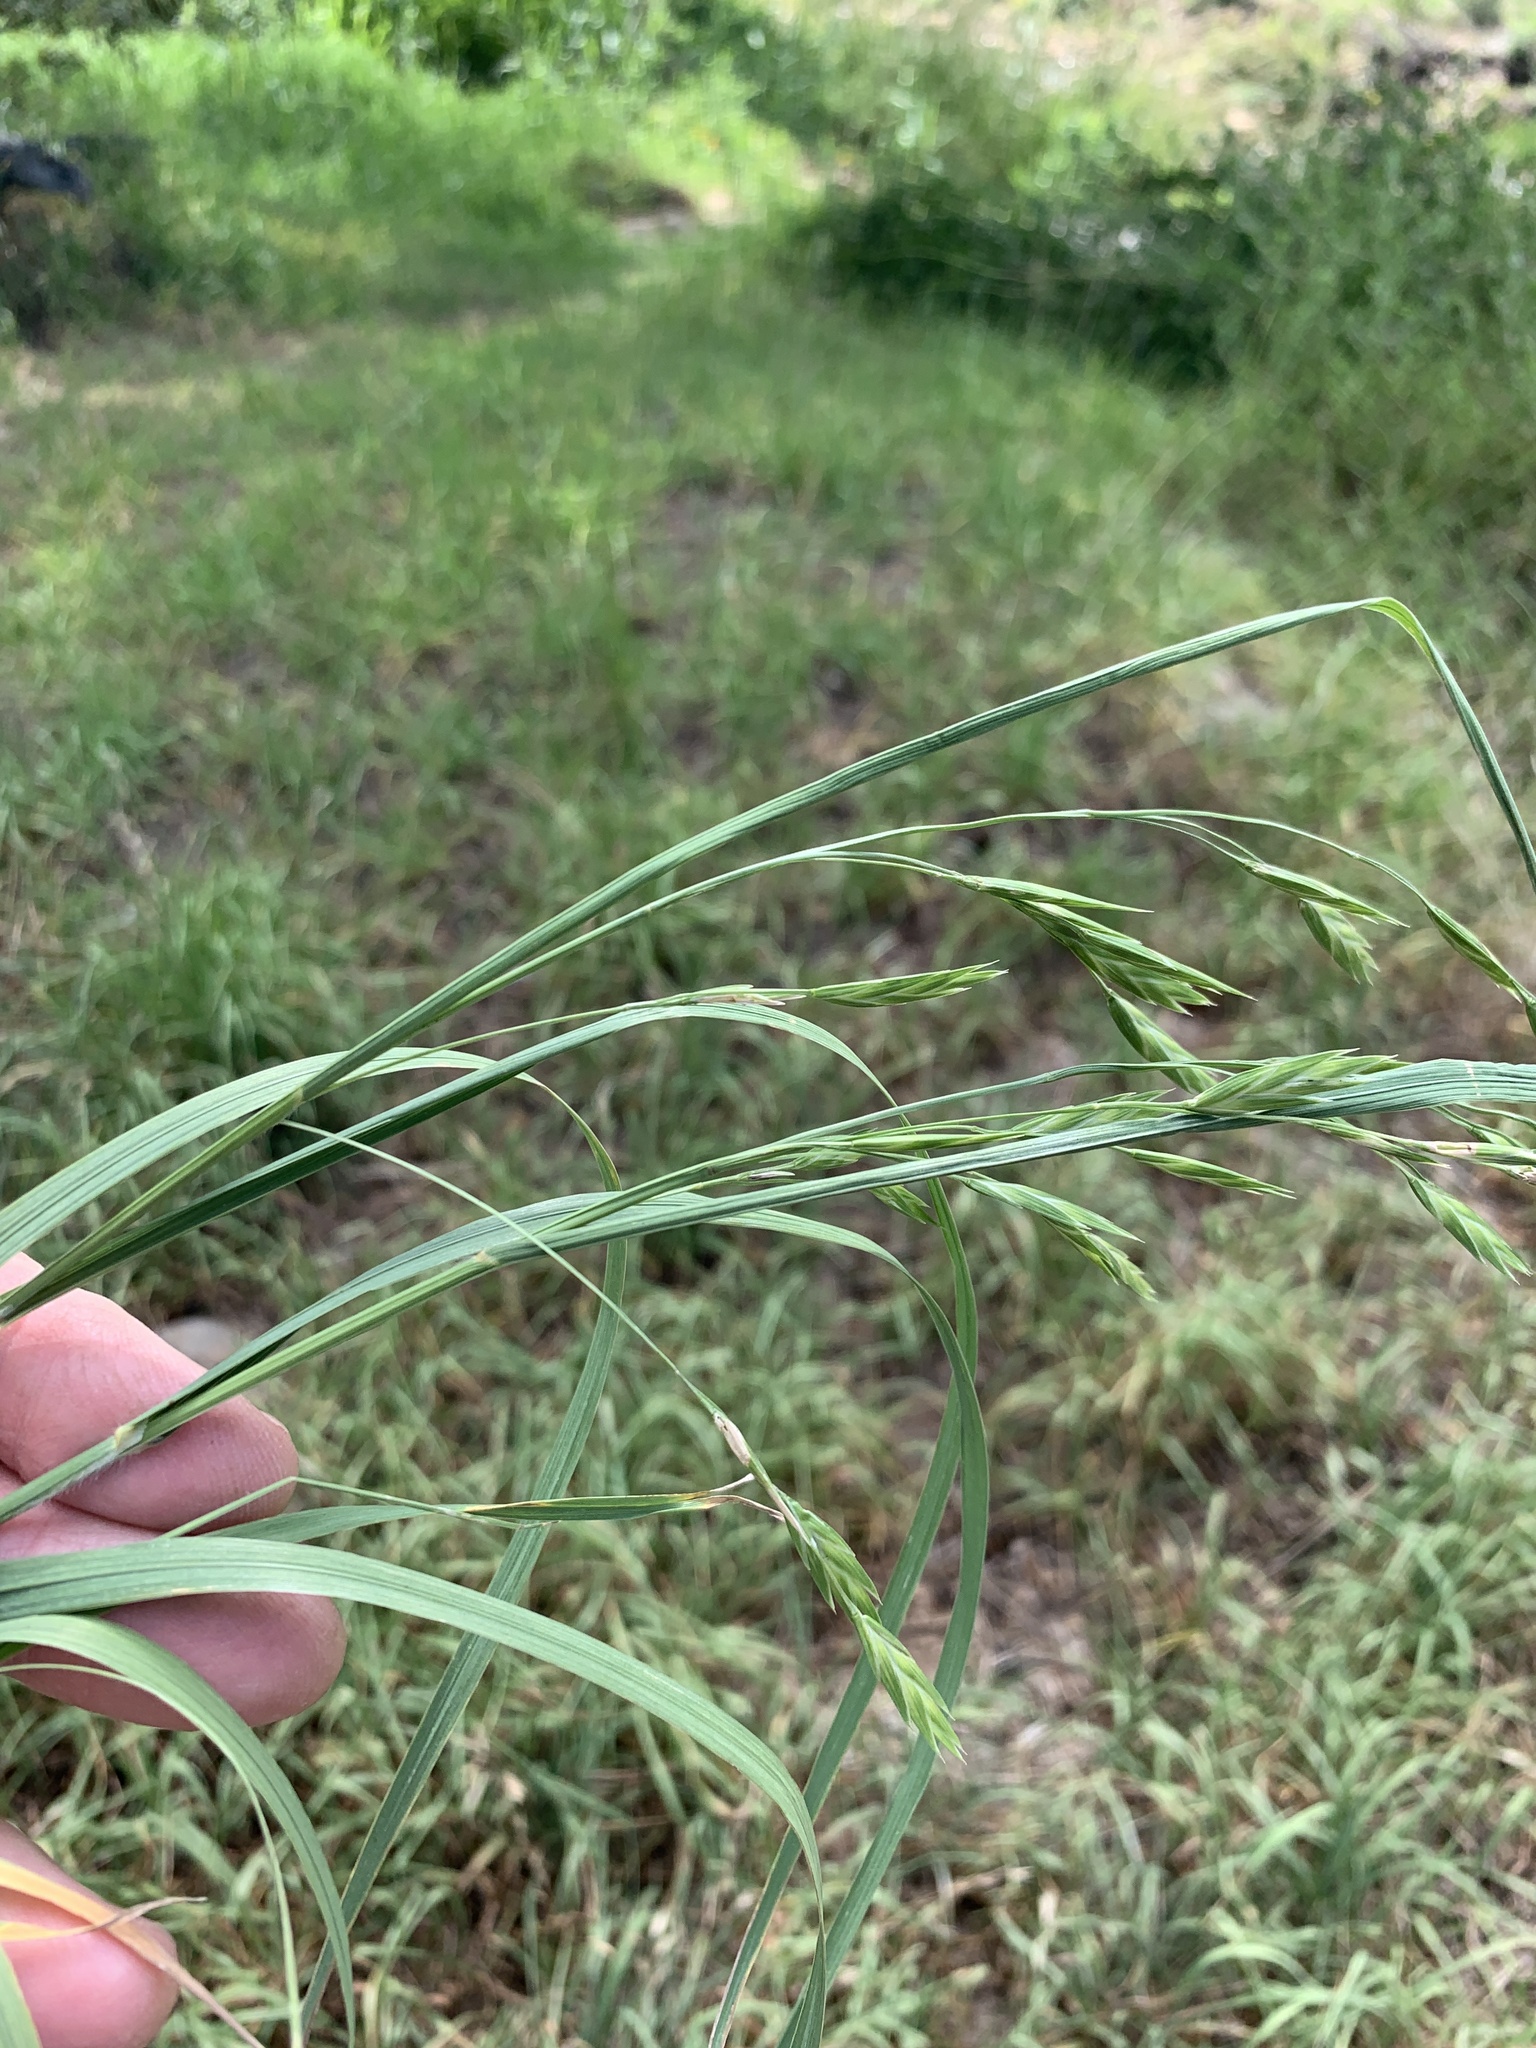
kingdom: Plantae
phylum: Tracheophyta
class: Liliopsida
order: Poales
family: Poaceae
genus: Bromus
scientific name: Bromus catharticus
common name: Rescuegrass
